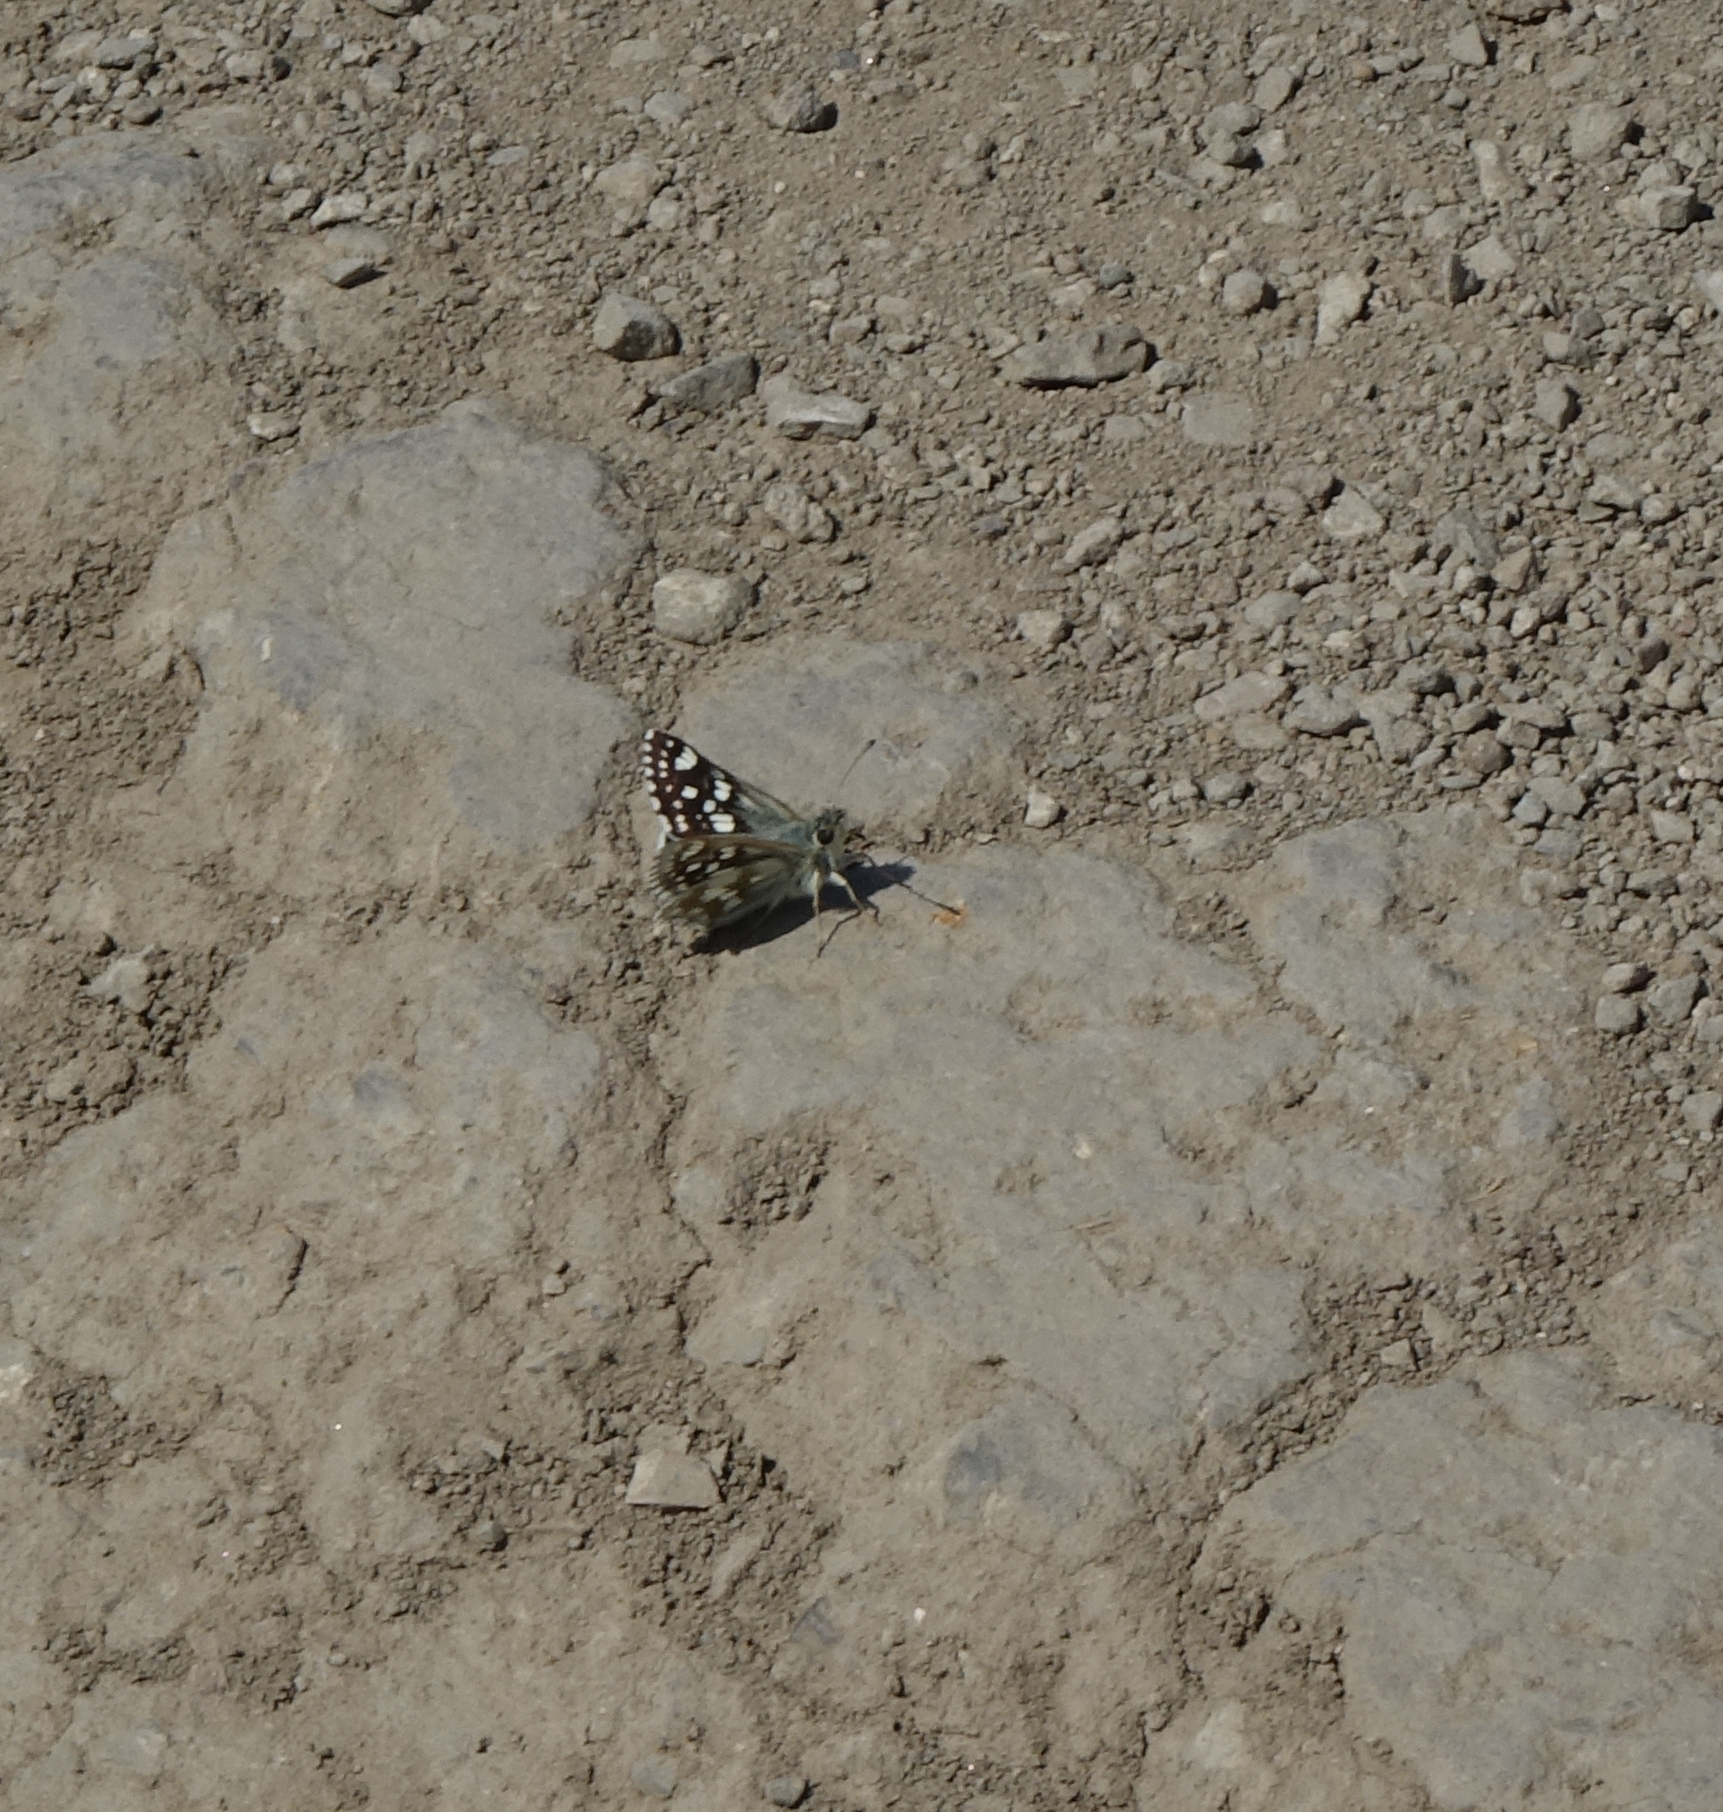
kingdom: Animalia
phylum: Arthropoda
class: Insecta
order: Lepidoptera
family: Hesperiidae
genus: Syrichtus
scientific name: Syrichtus cribrellum
